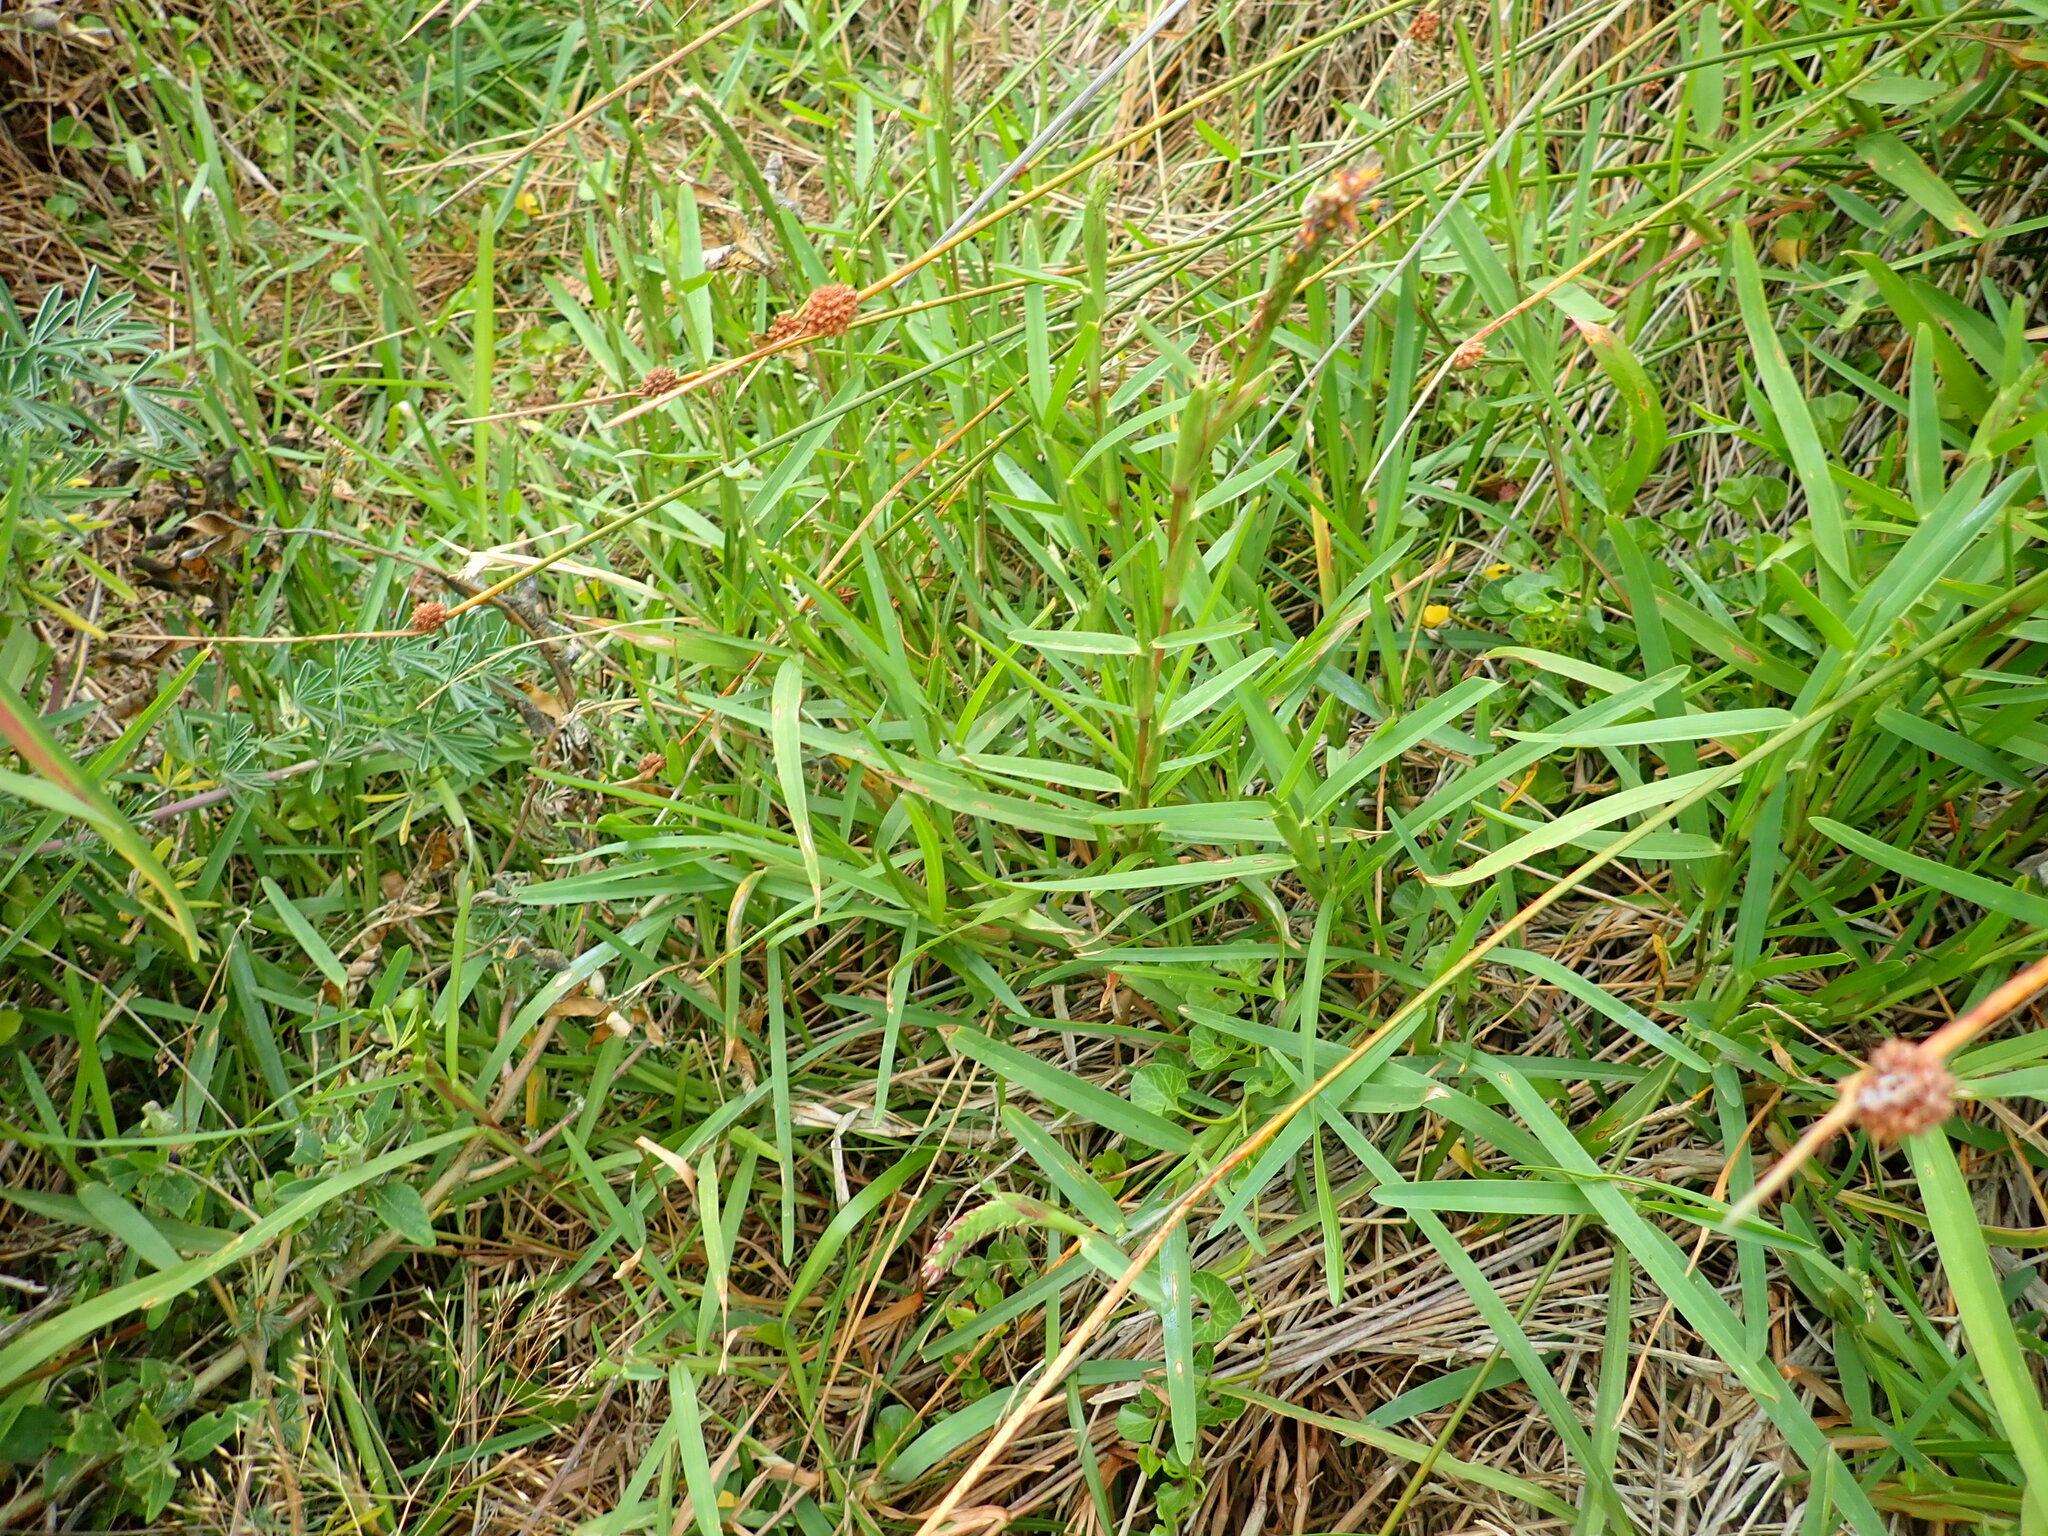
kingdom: Plantae
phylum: Tracheophyta
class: Liliopsida
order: Poales
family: Poaceae
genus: Stenotaphrum
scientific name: Stenotaphrum secundatum
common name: St. augustine grass
